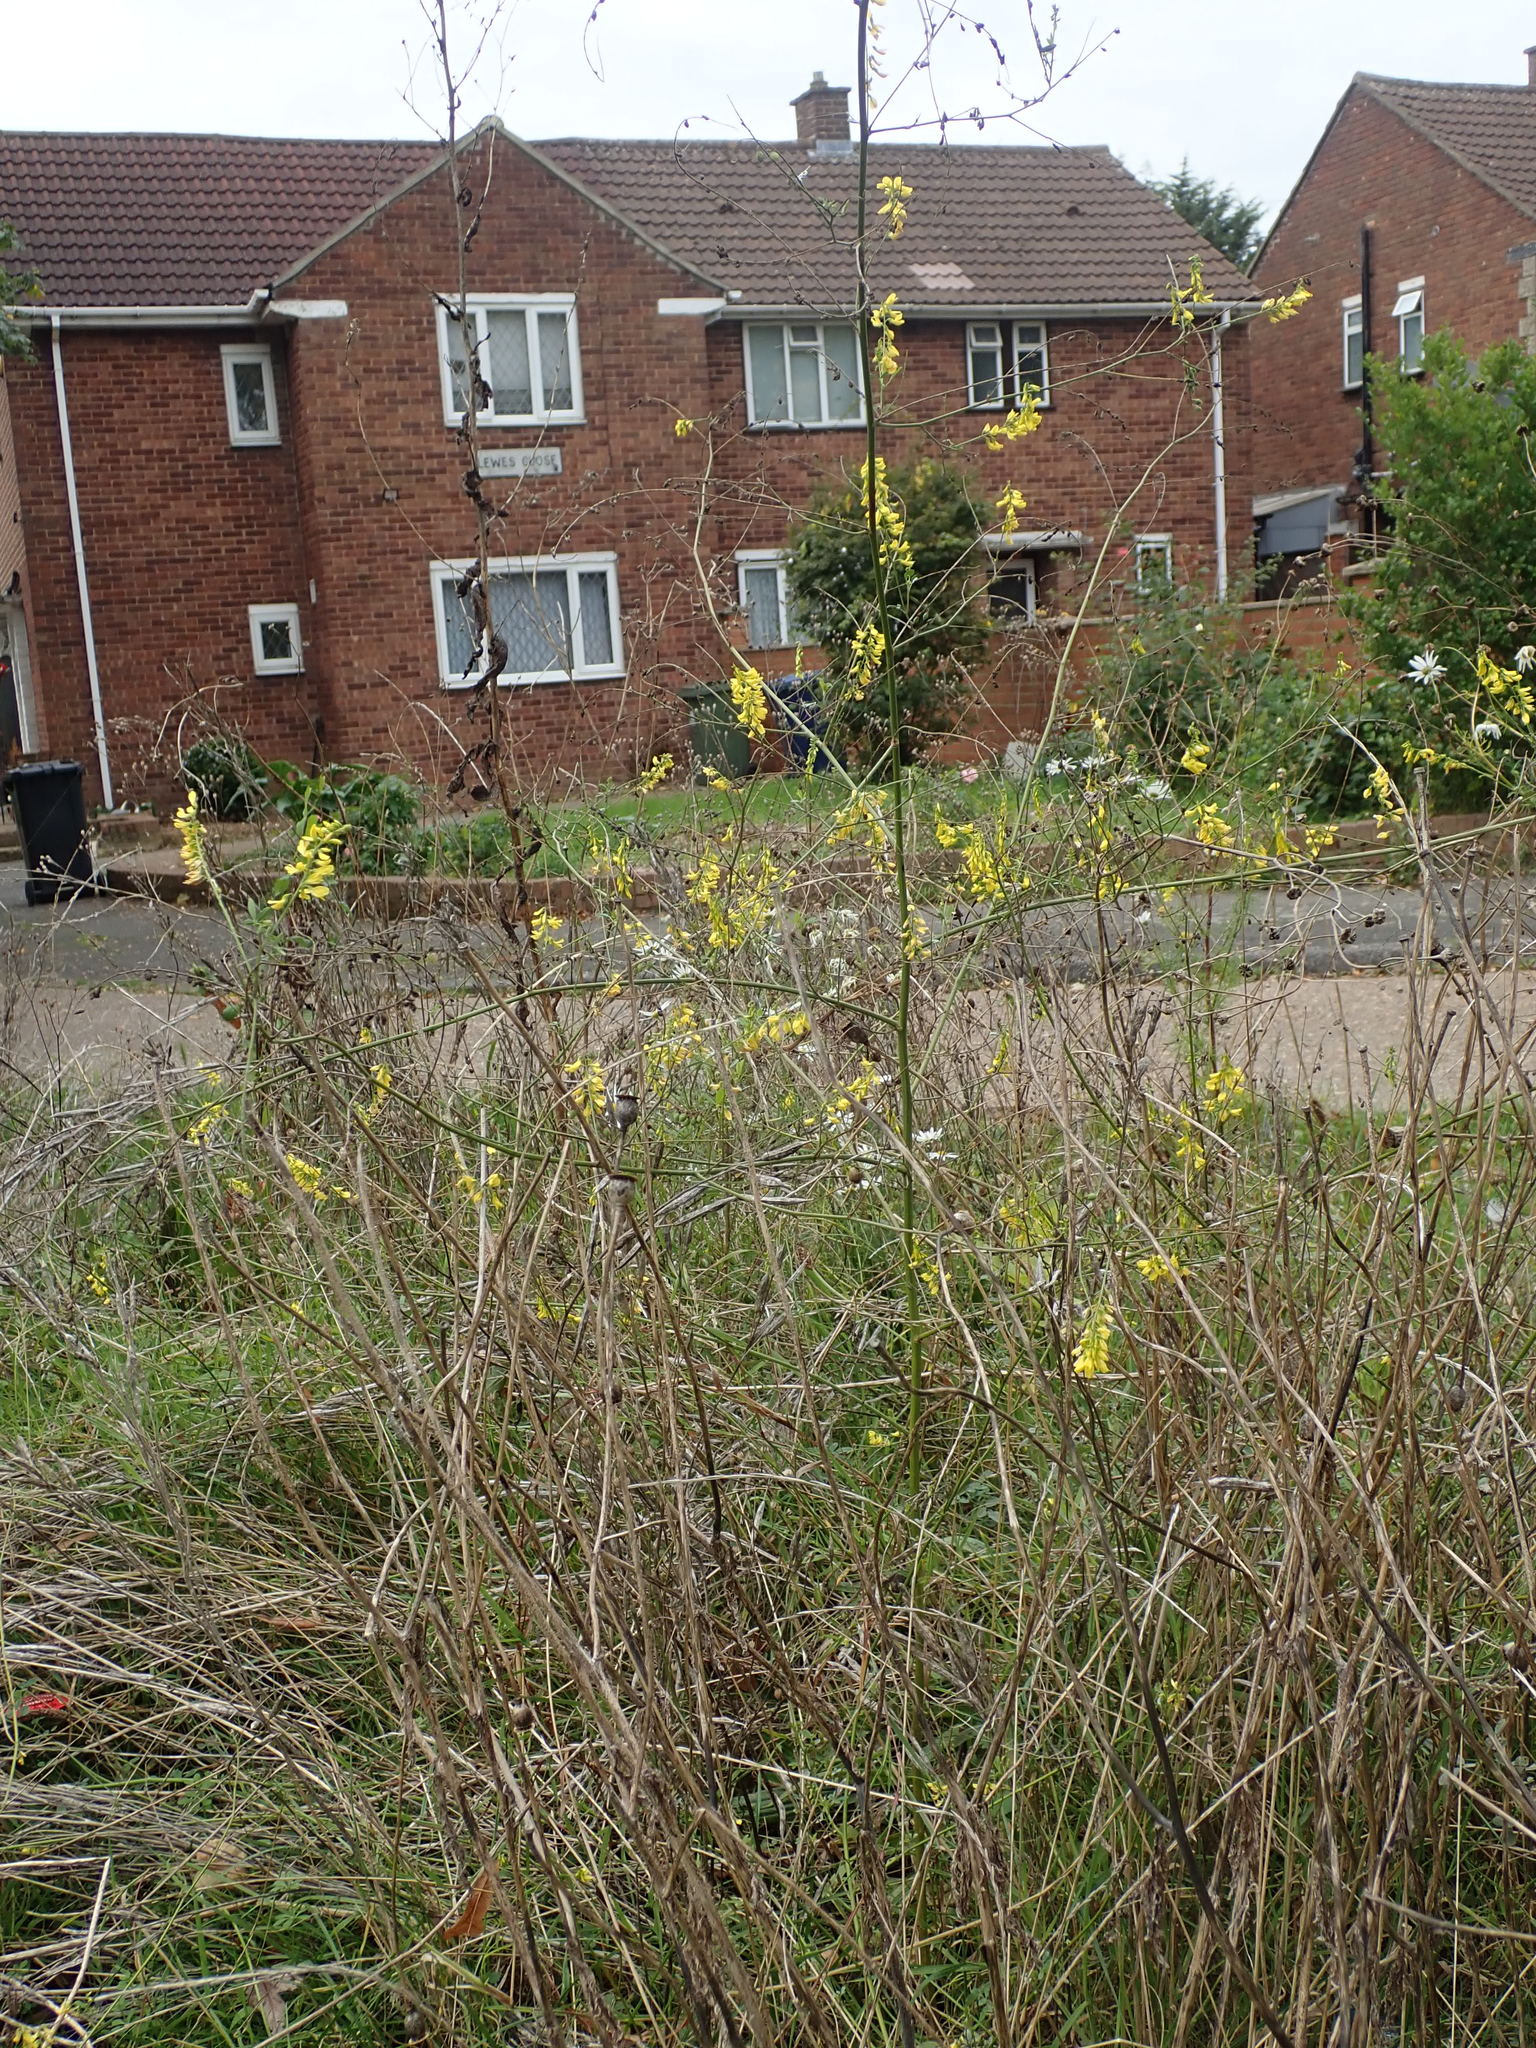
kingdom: Plantae
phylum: Tracheophyta
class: Magnoliopsida
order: Fabales
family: Fabaceae
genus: Melilotus
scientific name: Melilotus officinalis
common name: Sweetclover
